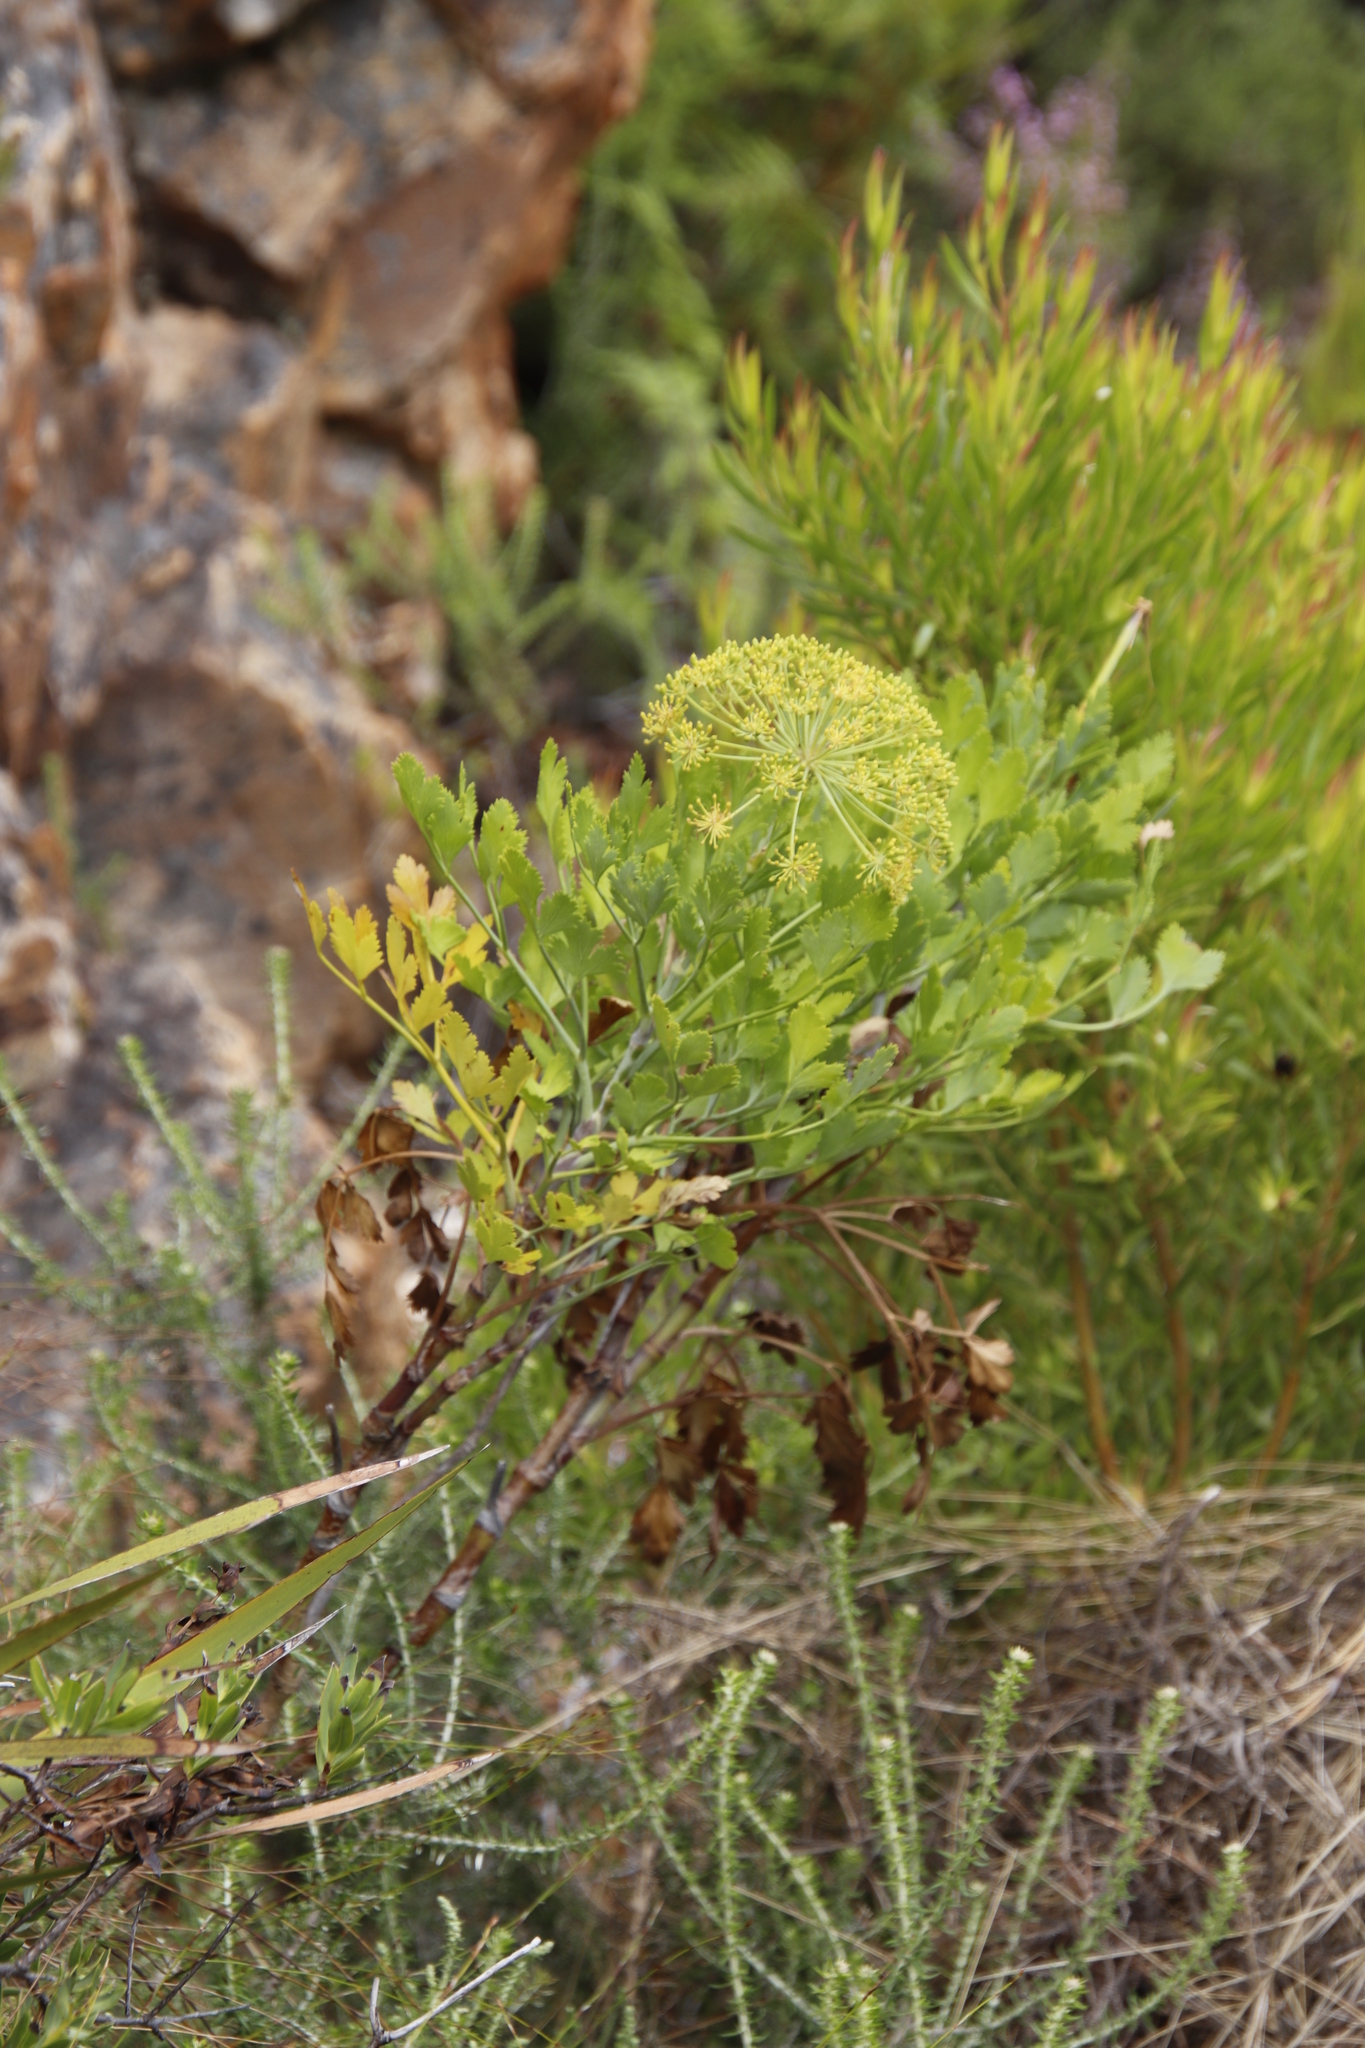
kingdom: Plantae
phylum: Tracheophyta
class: Magnoliopsida
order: Apiales
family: Apiaceae
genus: Notobubon
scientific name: Notobubon galbanum
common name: Blisterbush
